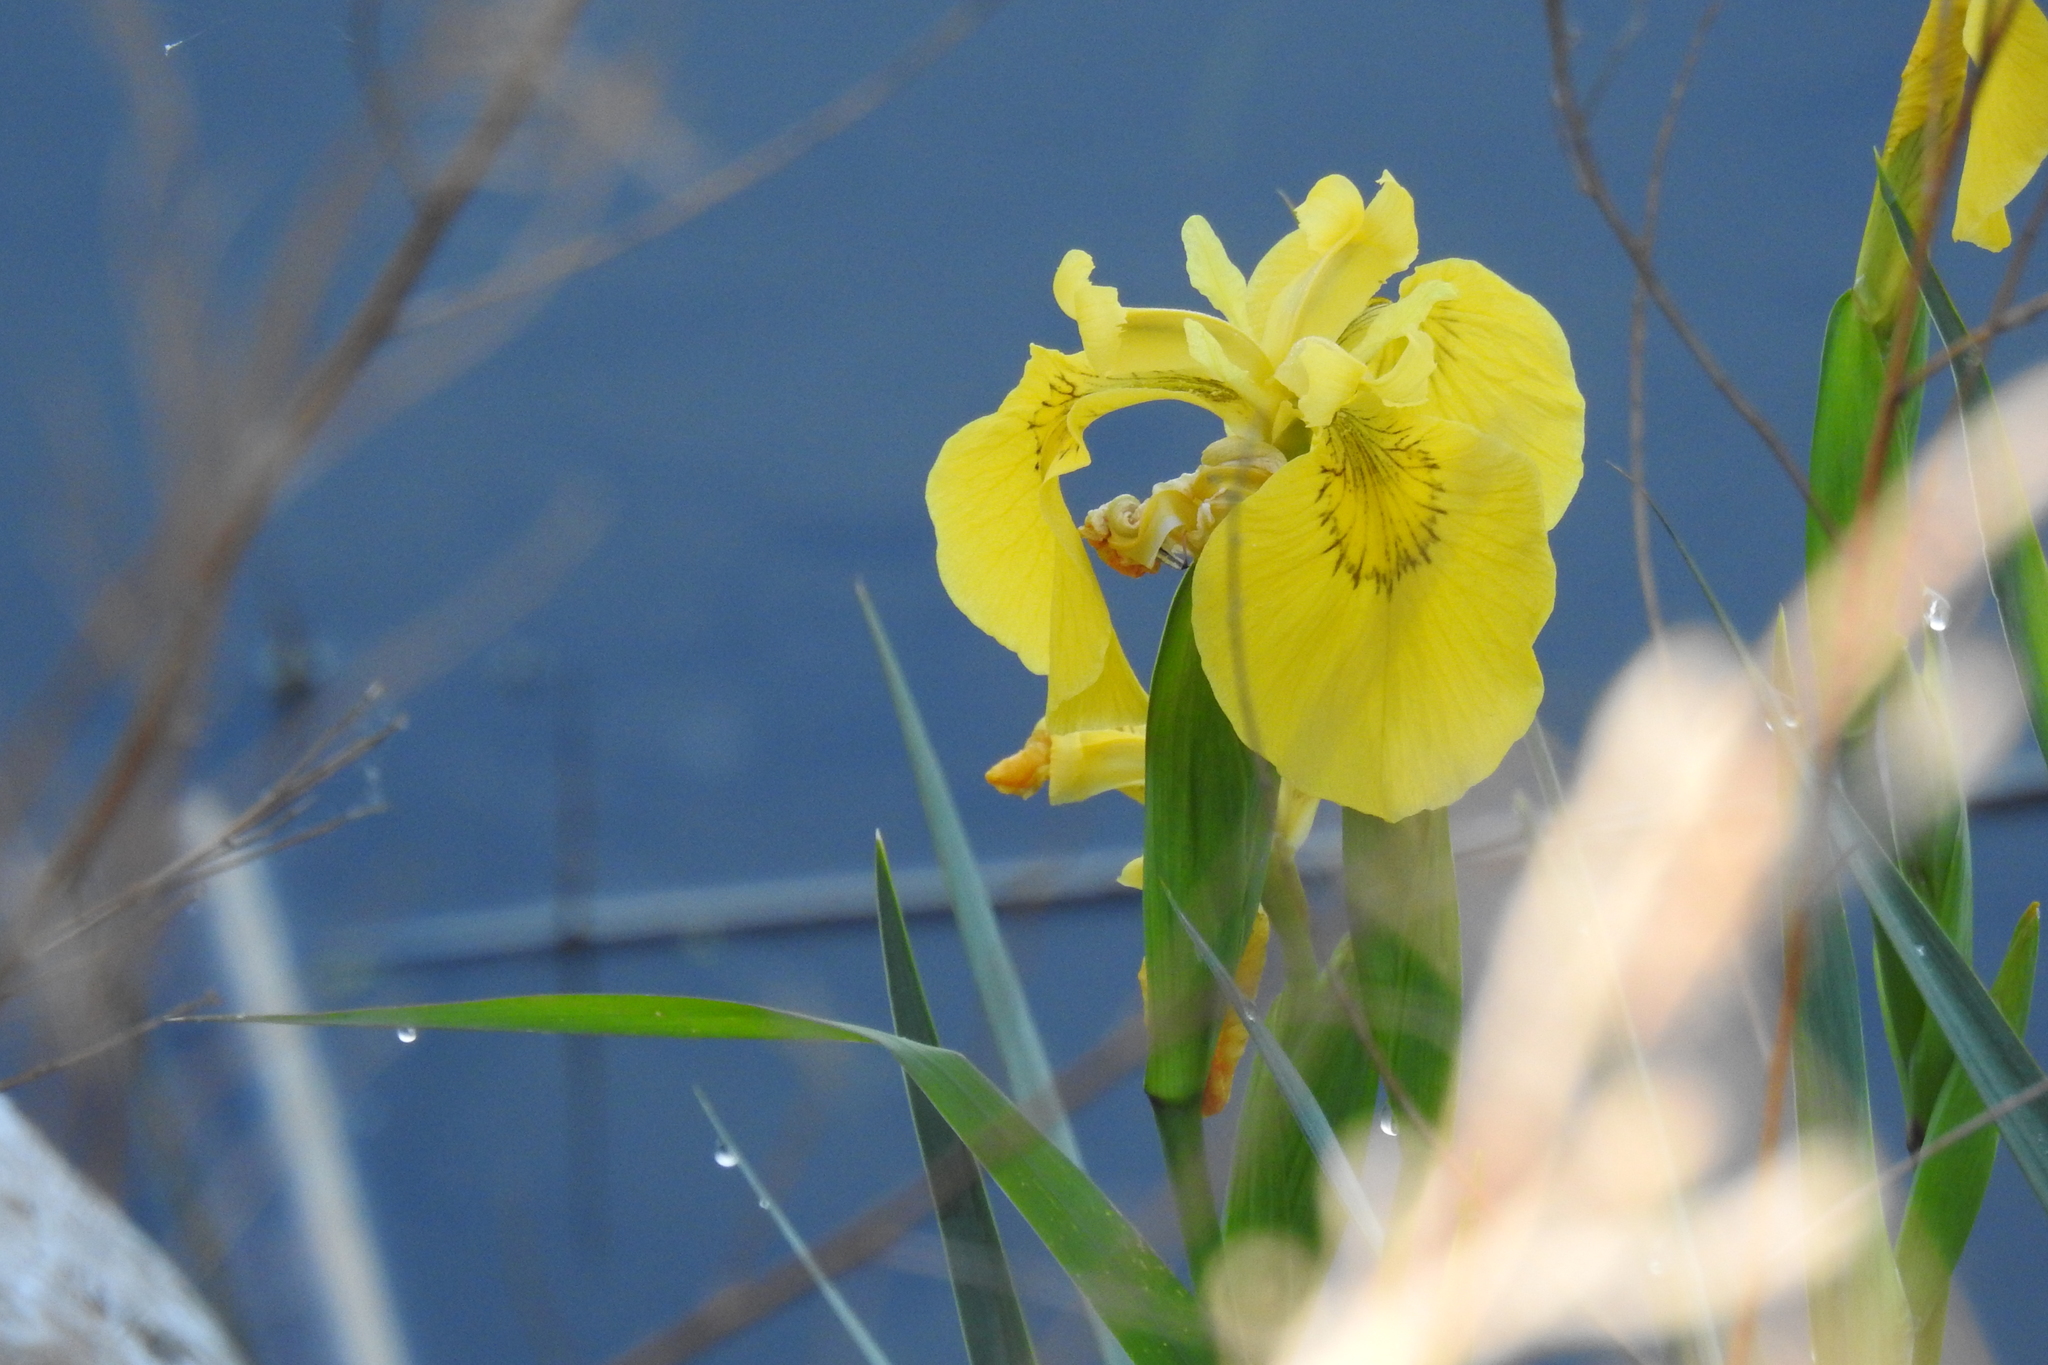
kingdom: Plantae
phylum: Tracheophyta
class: Liliopsida
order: Asparagales
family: Iridaceae
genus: Iris
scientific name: Iris pseudacorus
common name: Yellow flag
